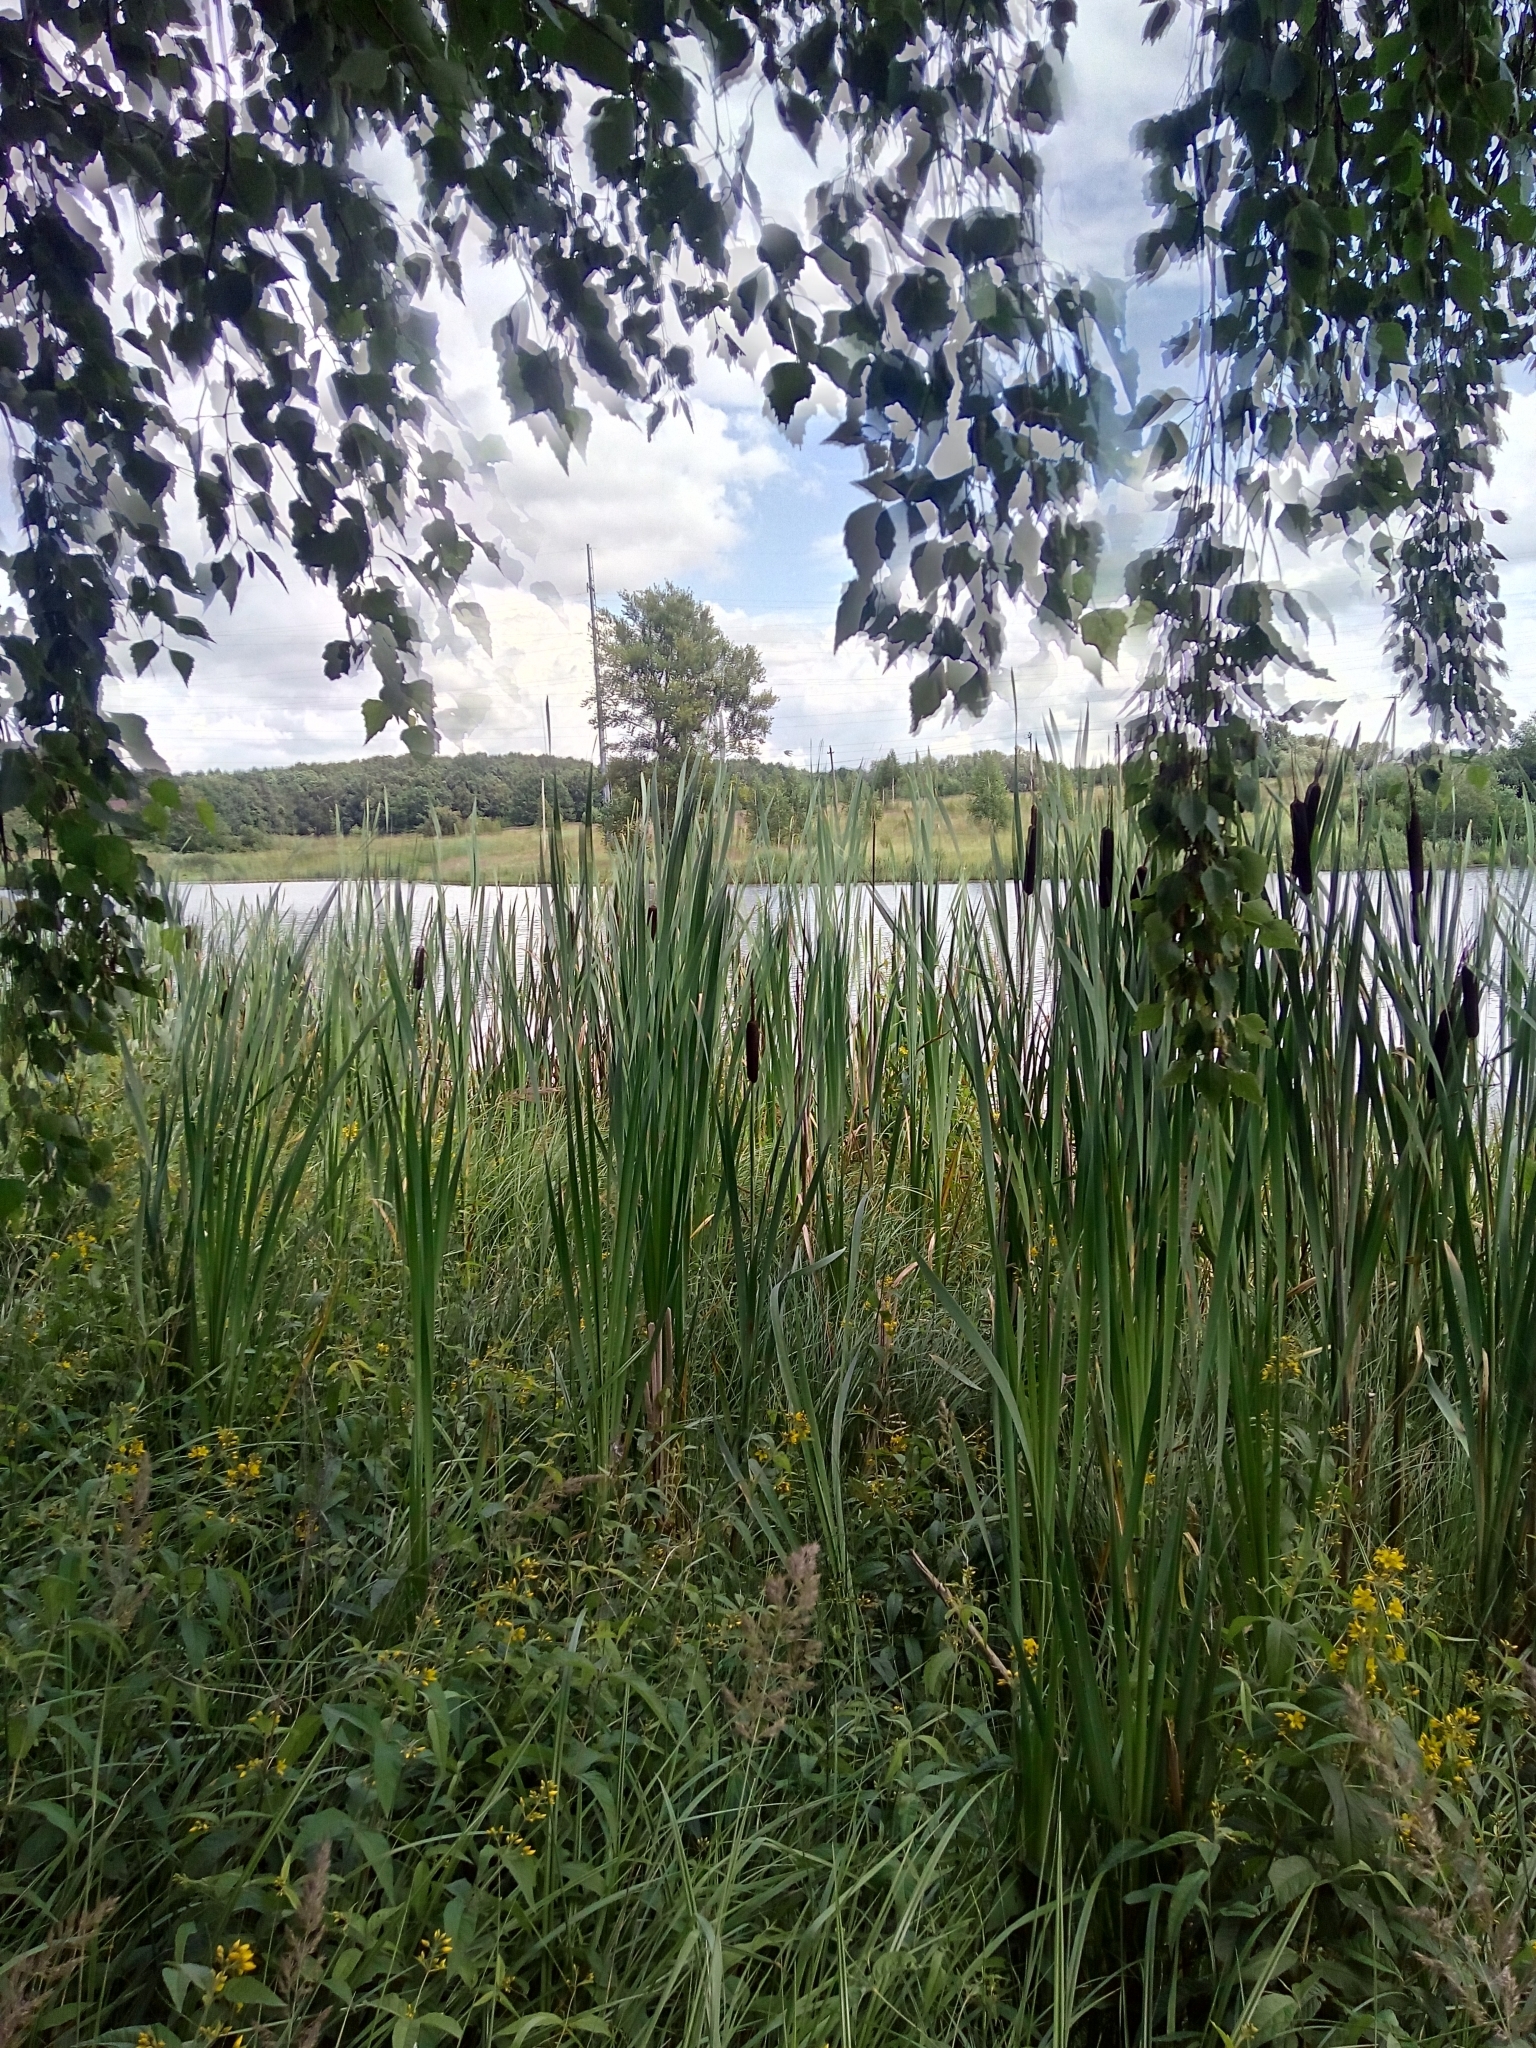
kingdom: Plantae
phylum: Tracheophyta
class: Liliopsida
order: Poales
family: Typhaceae
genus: Typha
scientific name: Typha latifolia
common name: Broadleaf cattail
